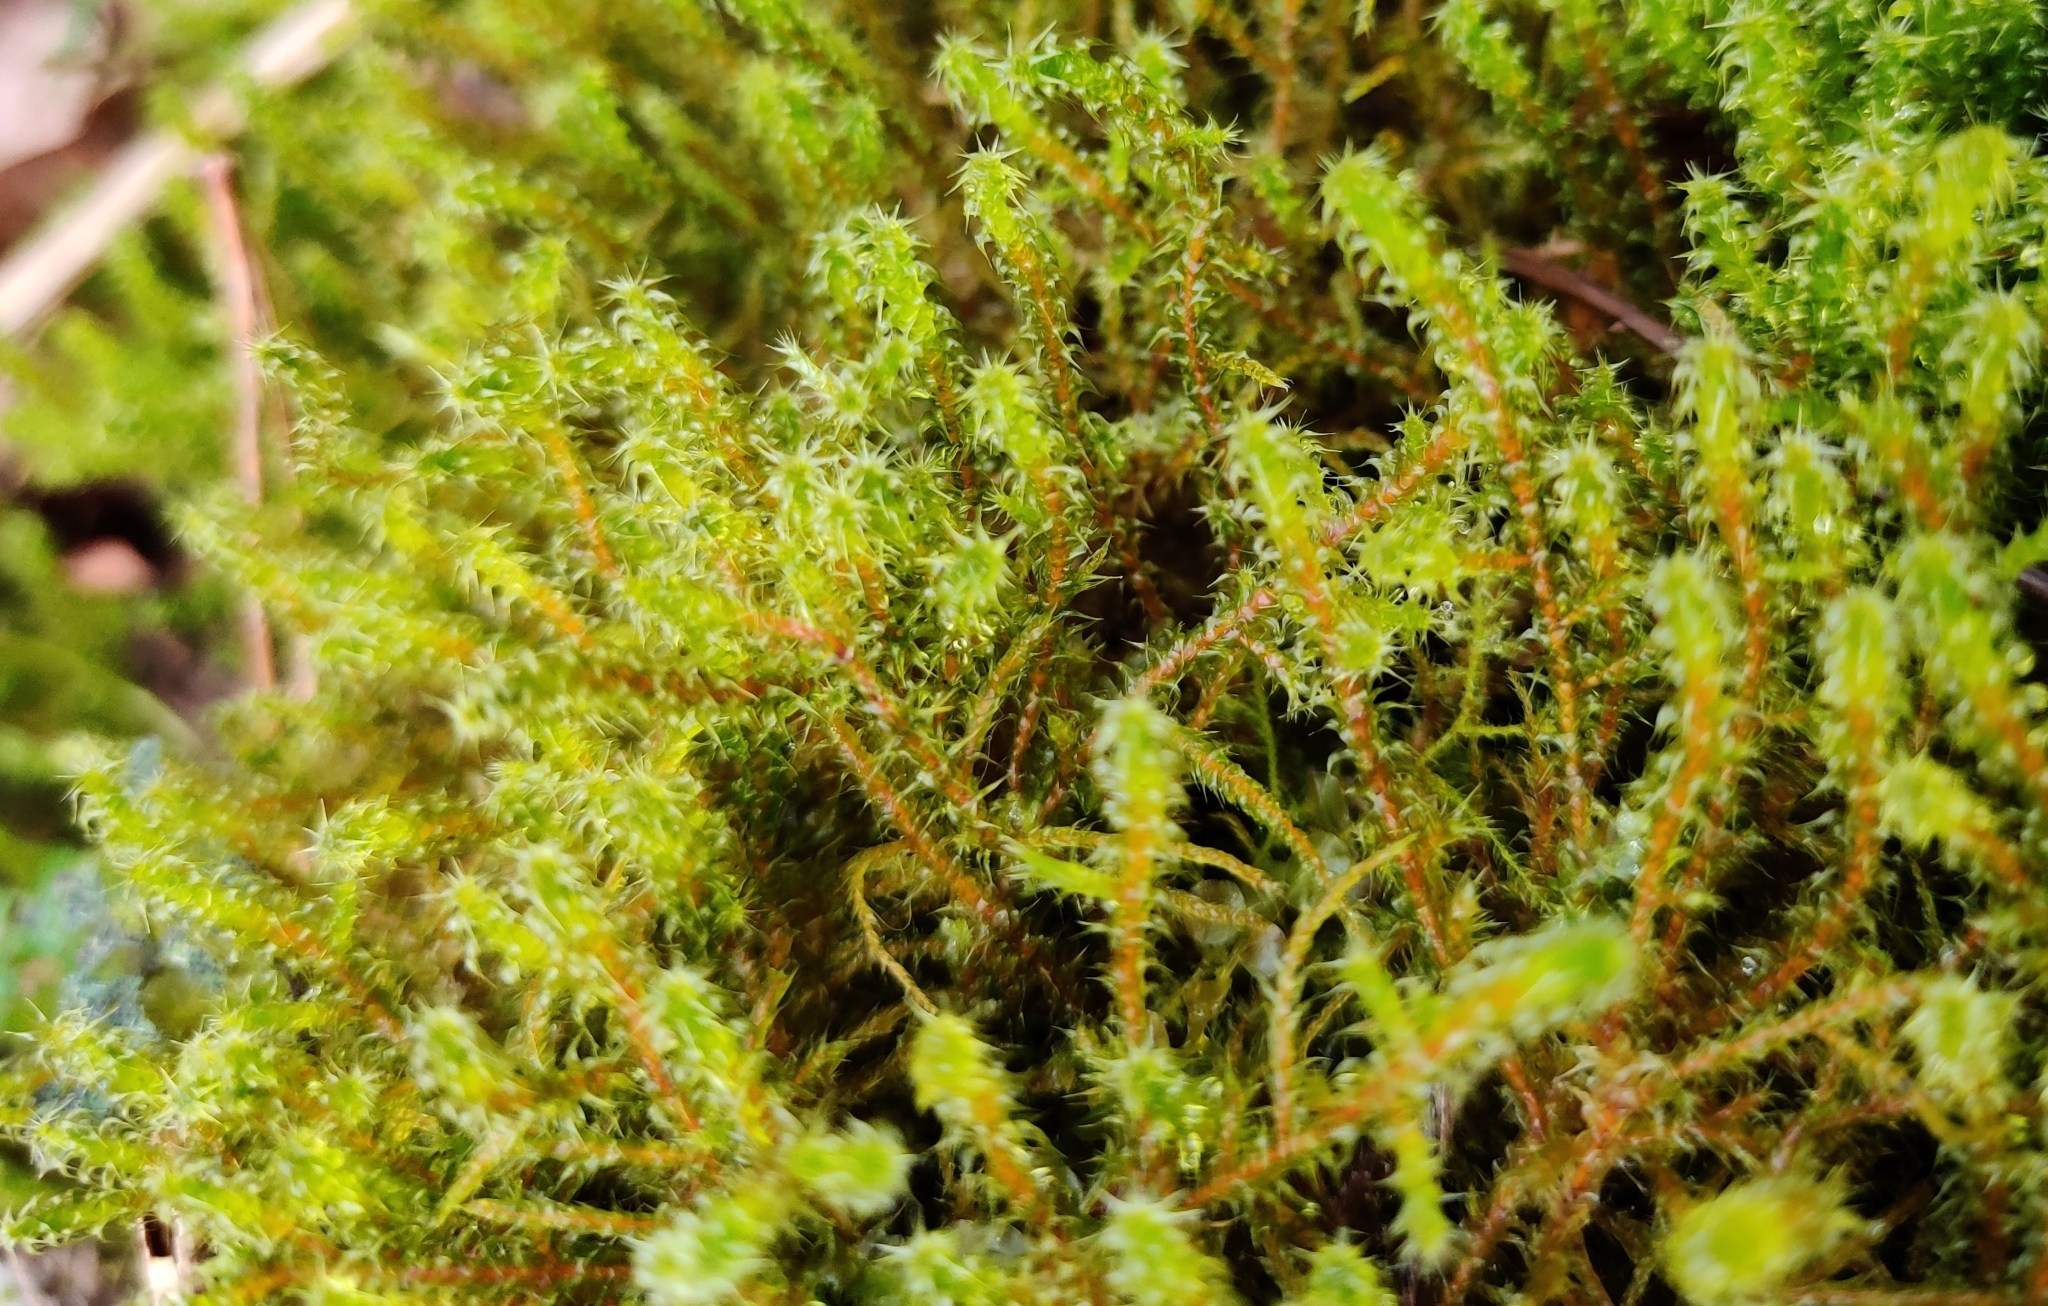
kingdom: Plantae
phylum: Bryophyta
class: Bryopsida
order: Hypnales
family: Hylocomiaceae
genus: Rhytidiadelphus
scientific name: Rhytidiadelphus squarrosus
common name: Springy turf-moss
